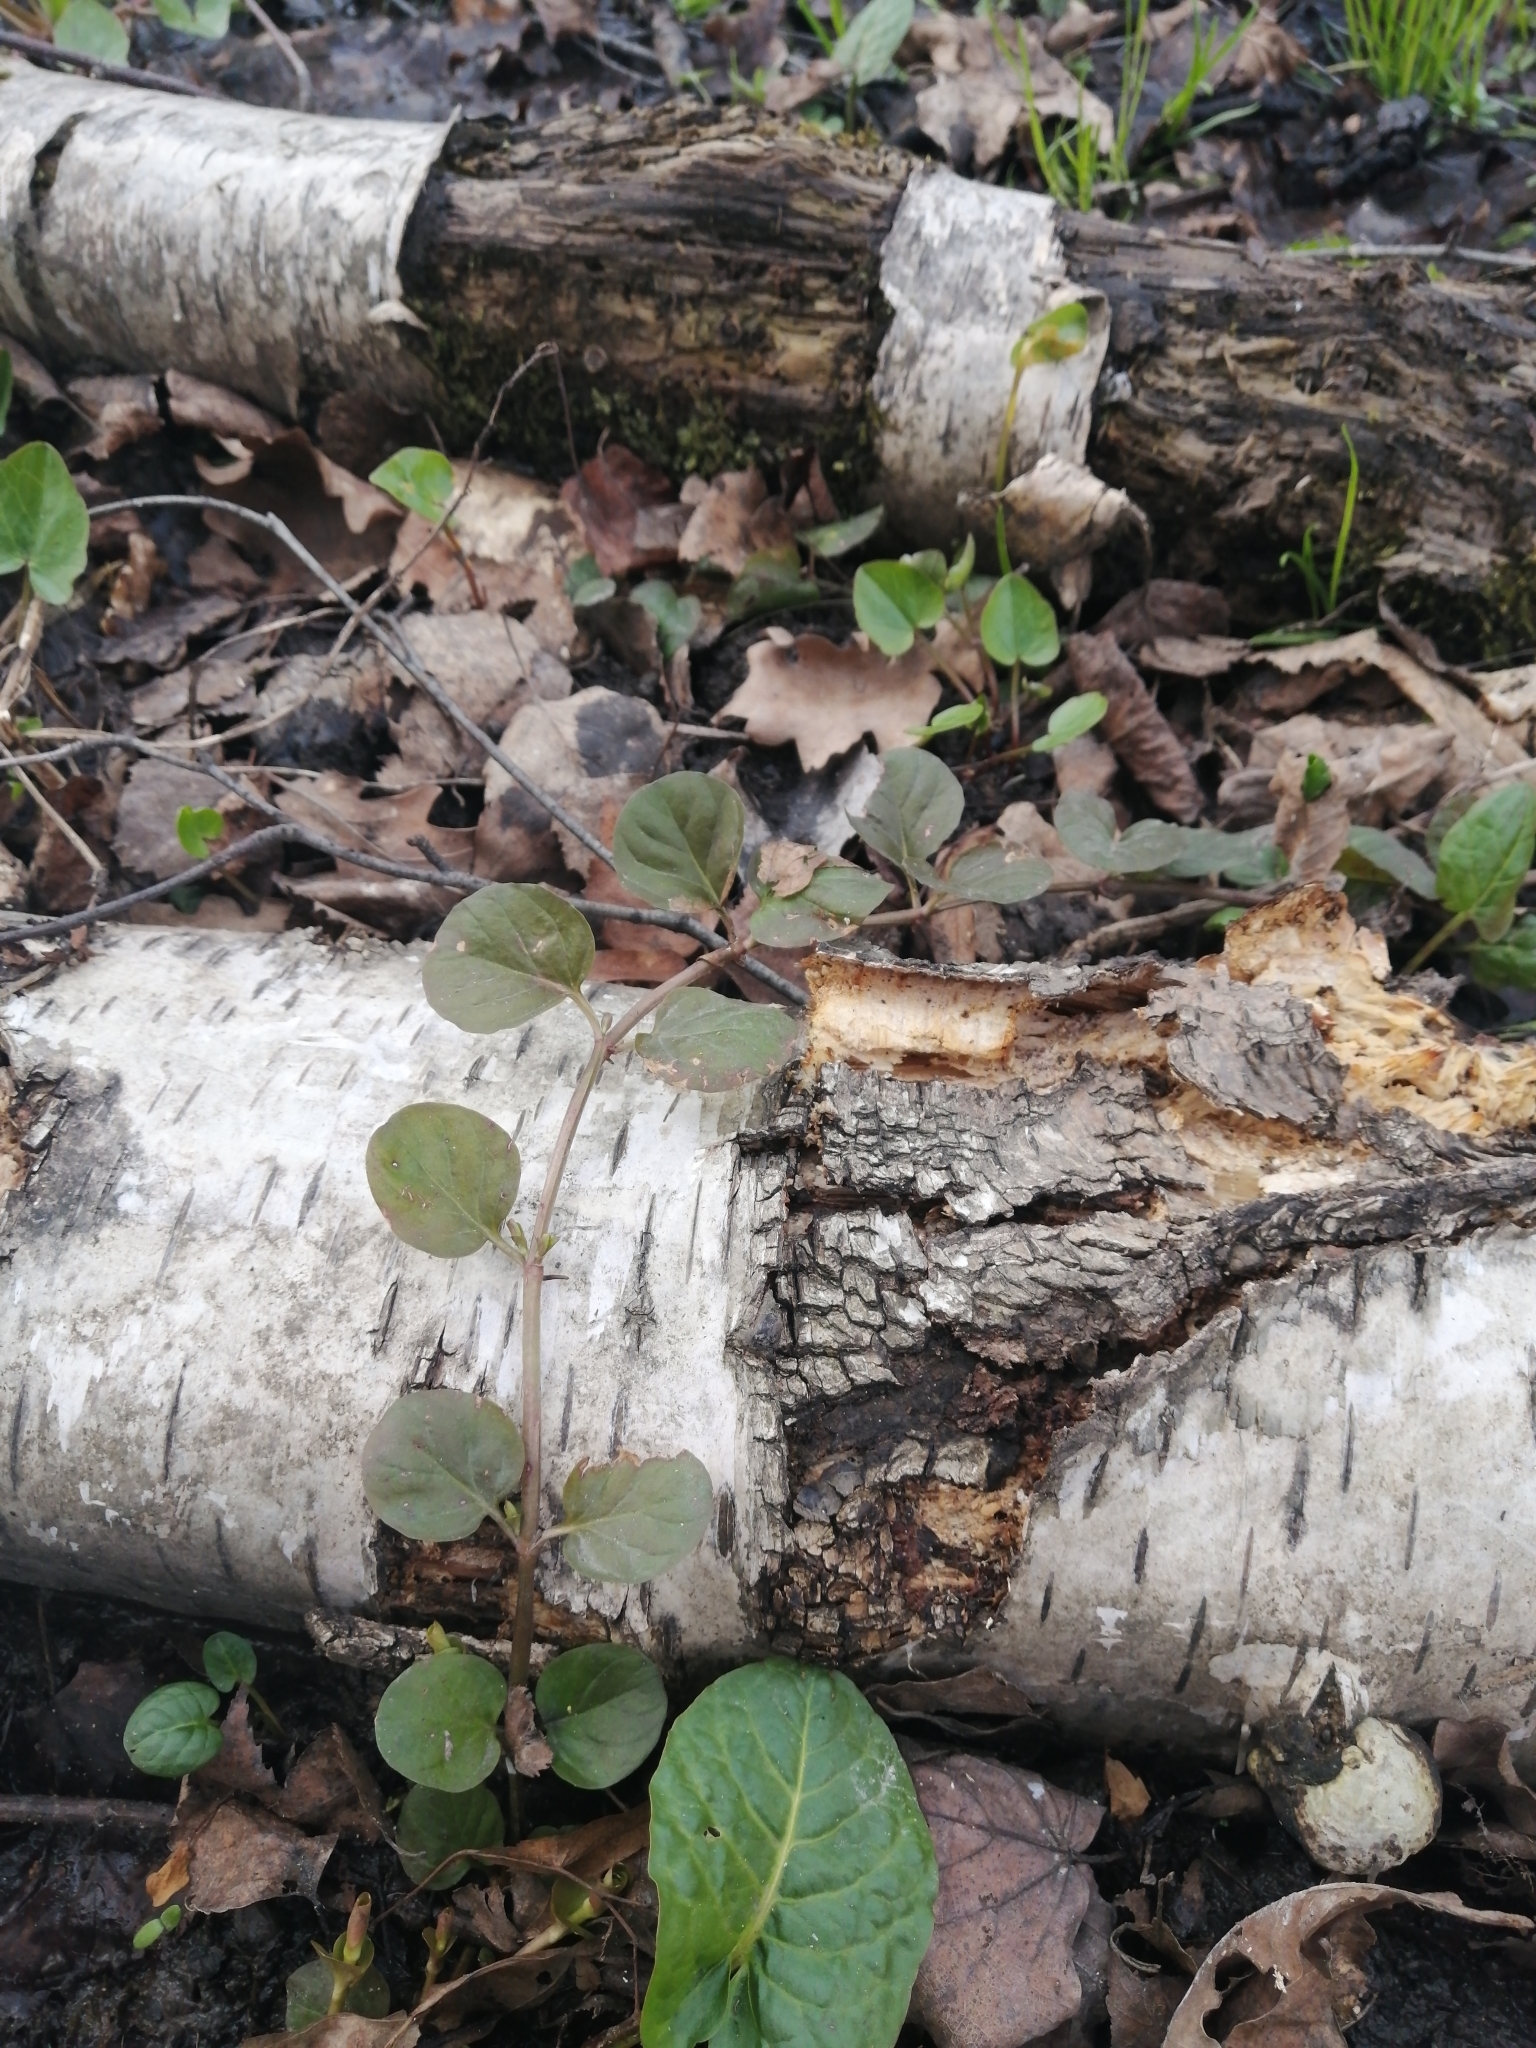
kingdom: Plantae
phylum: Tracheophyta
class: Magnoliopsida
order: Ericales
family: Primulaceae
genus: Lysimachia
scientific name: Lysimachia nummularia
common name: Moneywort
